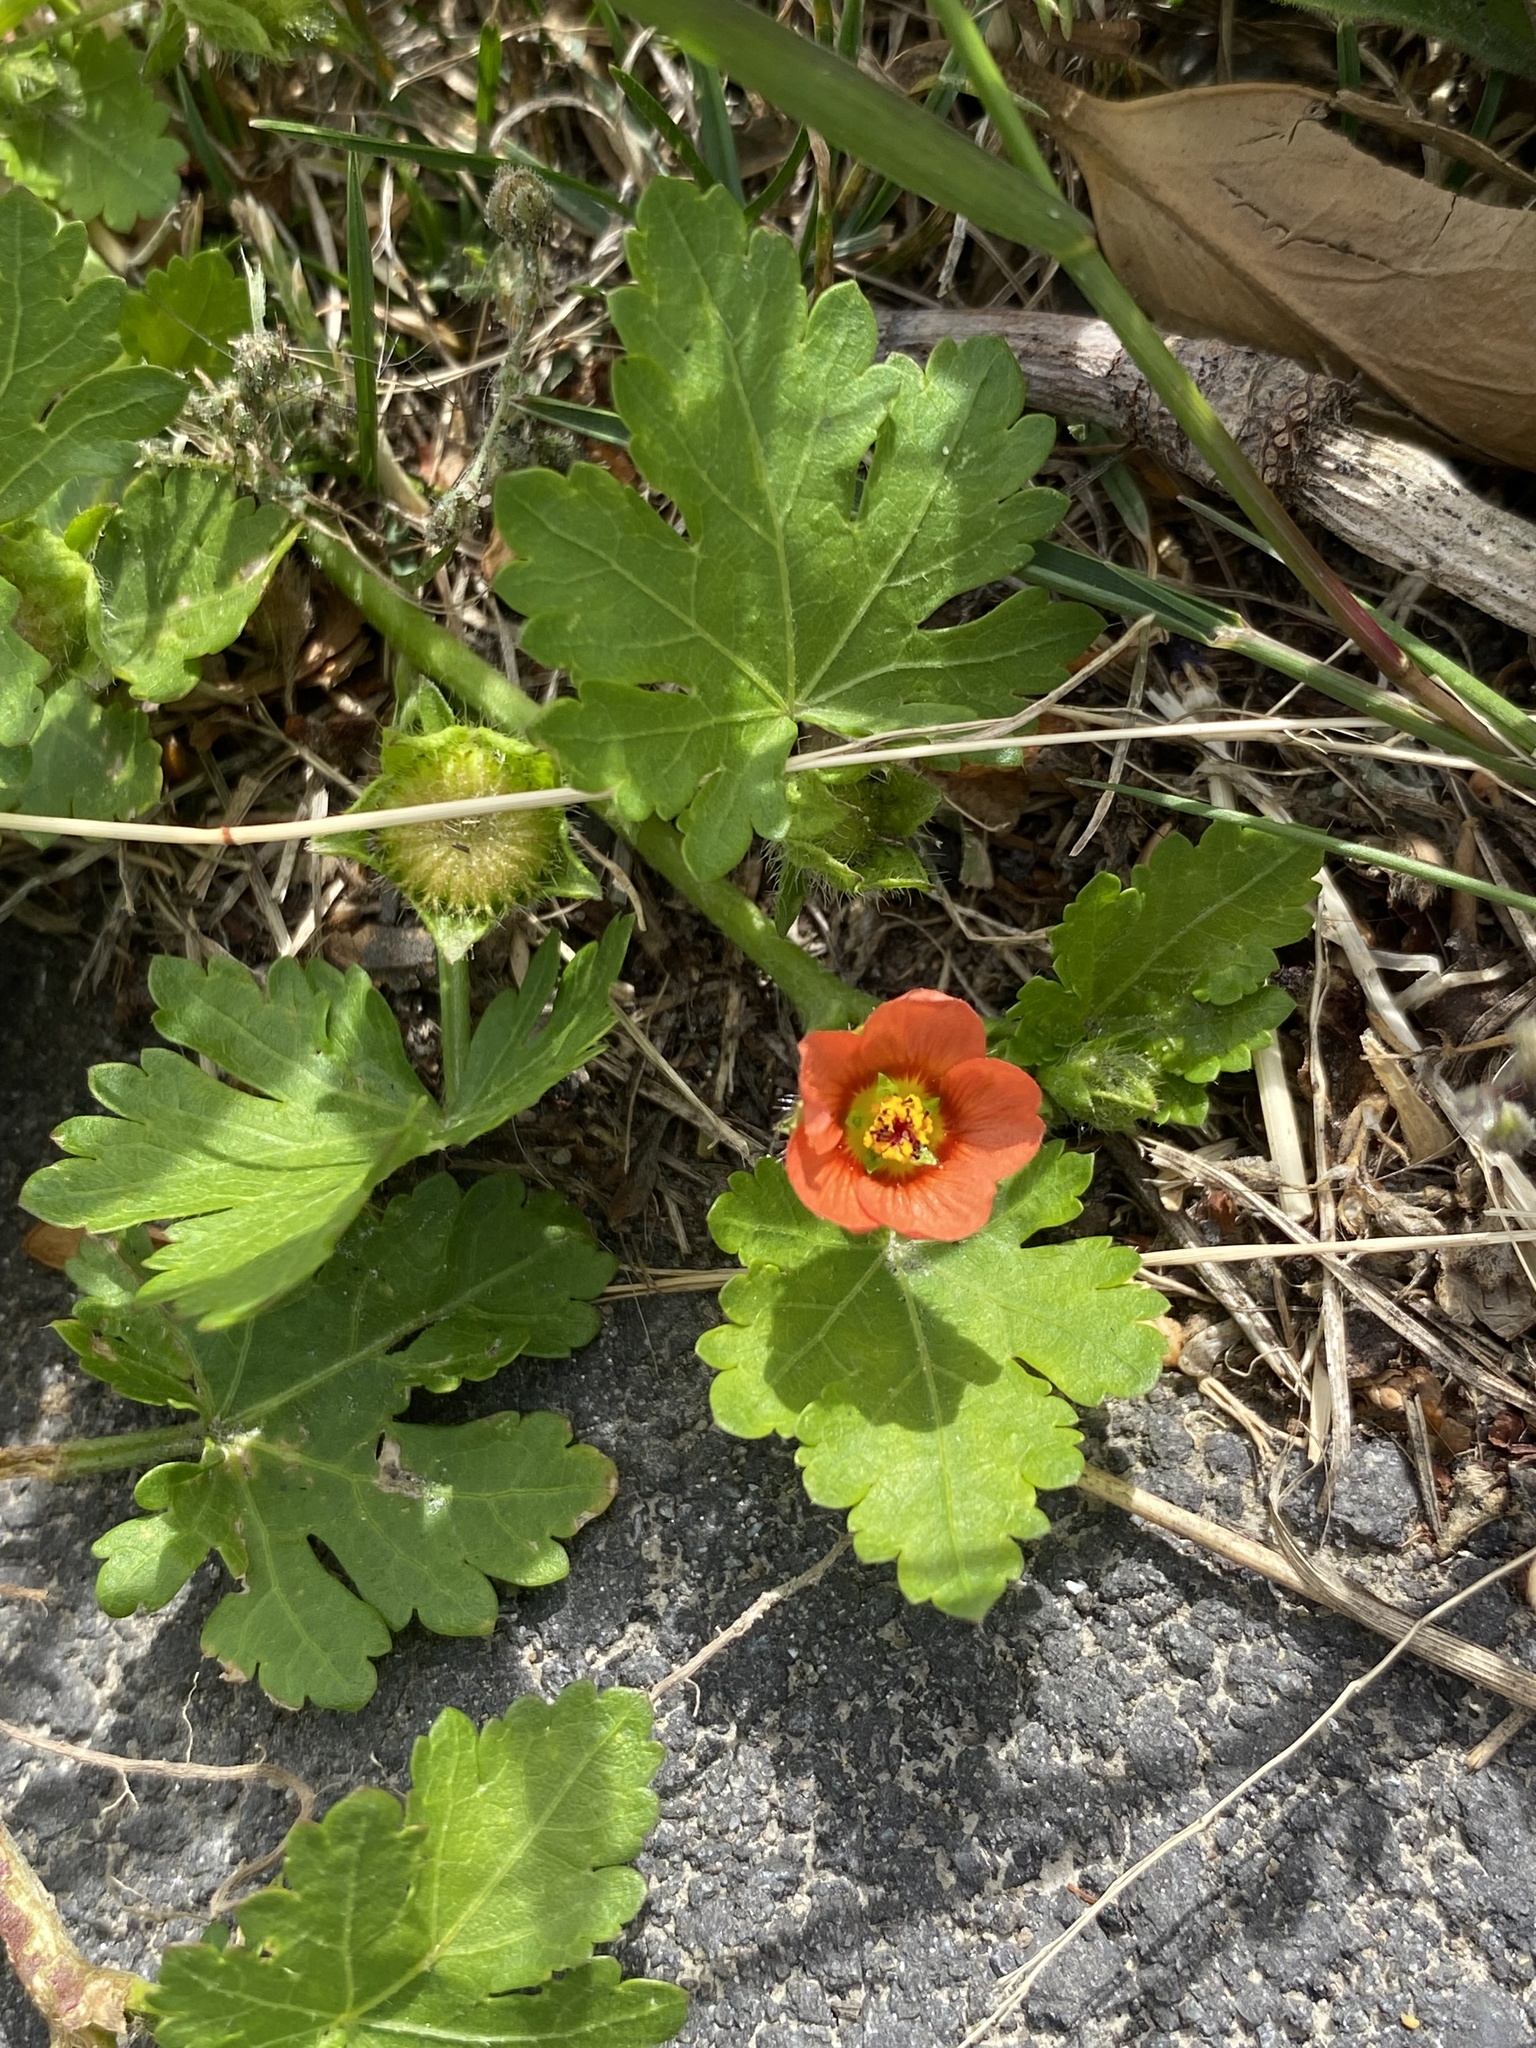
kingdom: Plantae
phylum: Tracheophyta
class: Magnoliopsida
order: Malvales
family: Malvaceae
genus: Modiola
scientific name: Modiola caroliniana
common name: Carolina bristlemallow
